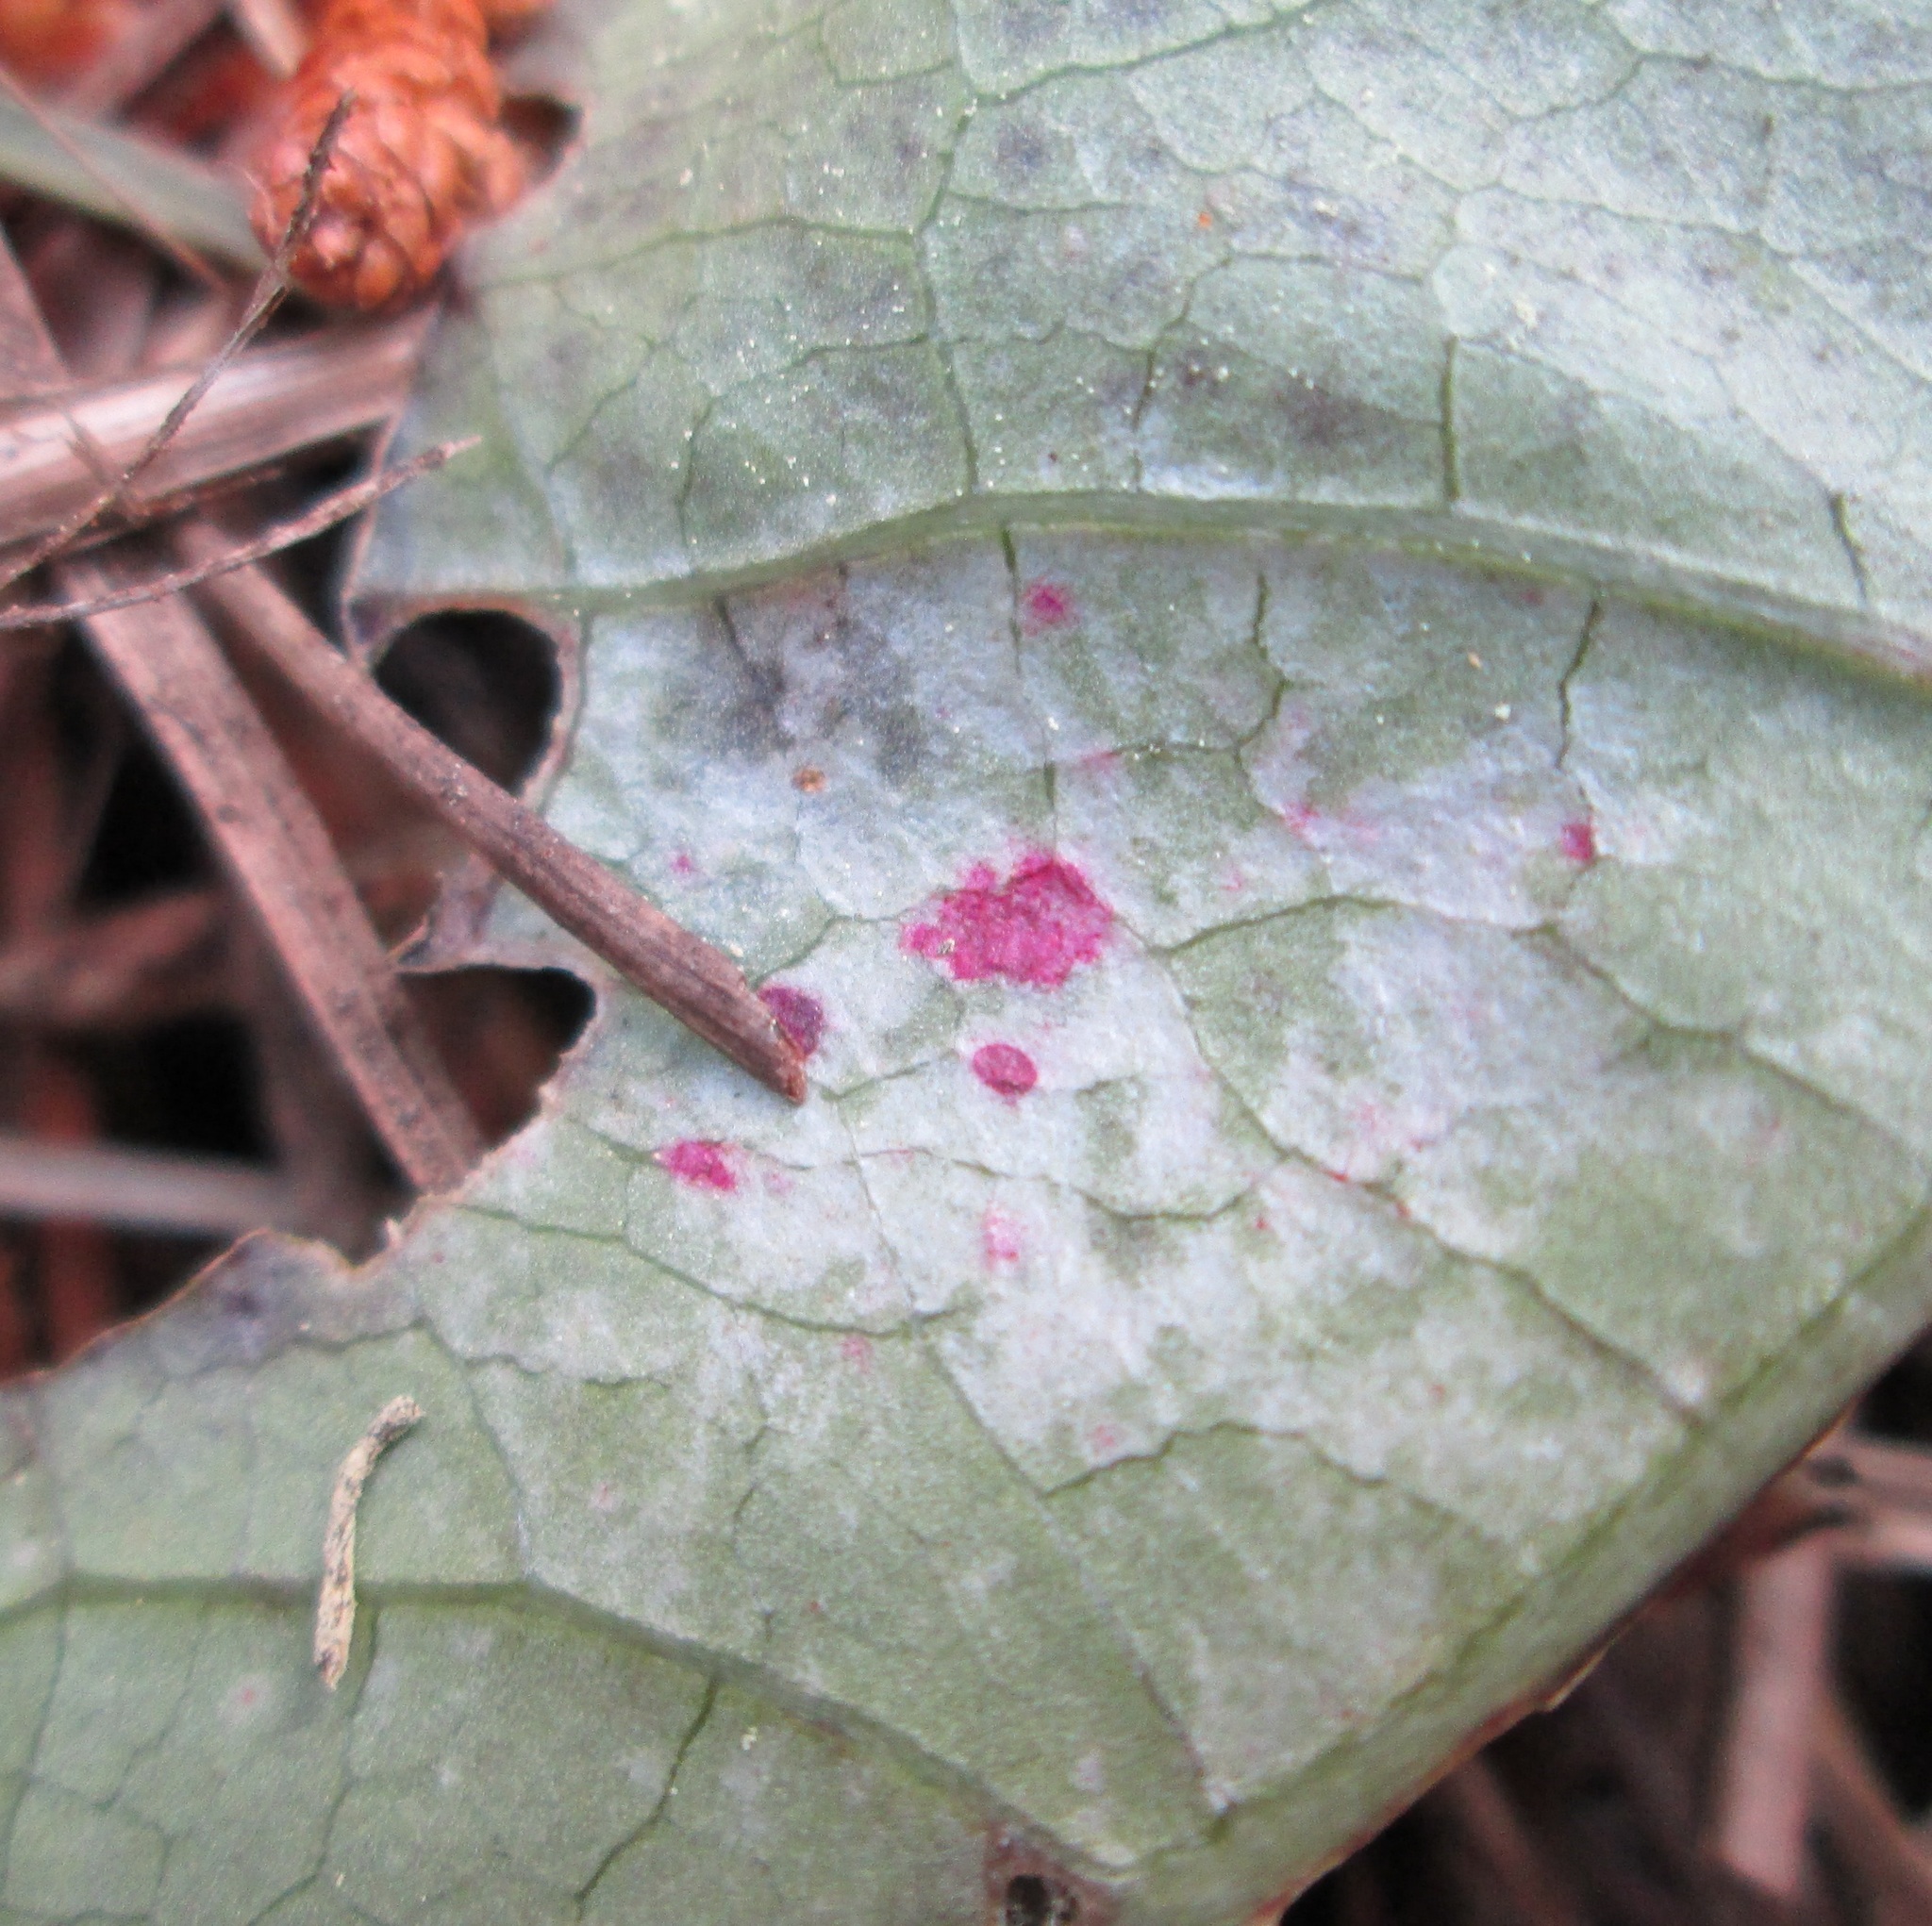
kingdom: Plantae
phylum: Tracheophyta
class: Magnoliopsida
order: Gentianales
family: Rubiaceae
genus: Coprosma
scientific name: Coprosma autumnalis
